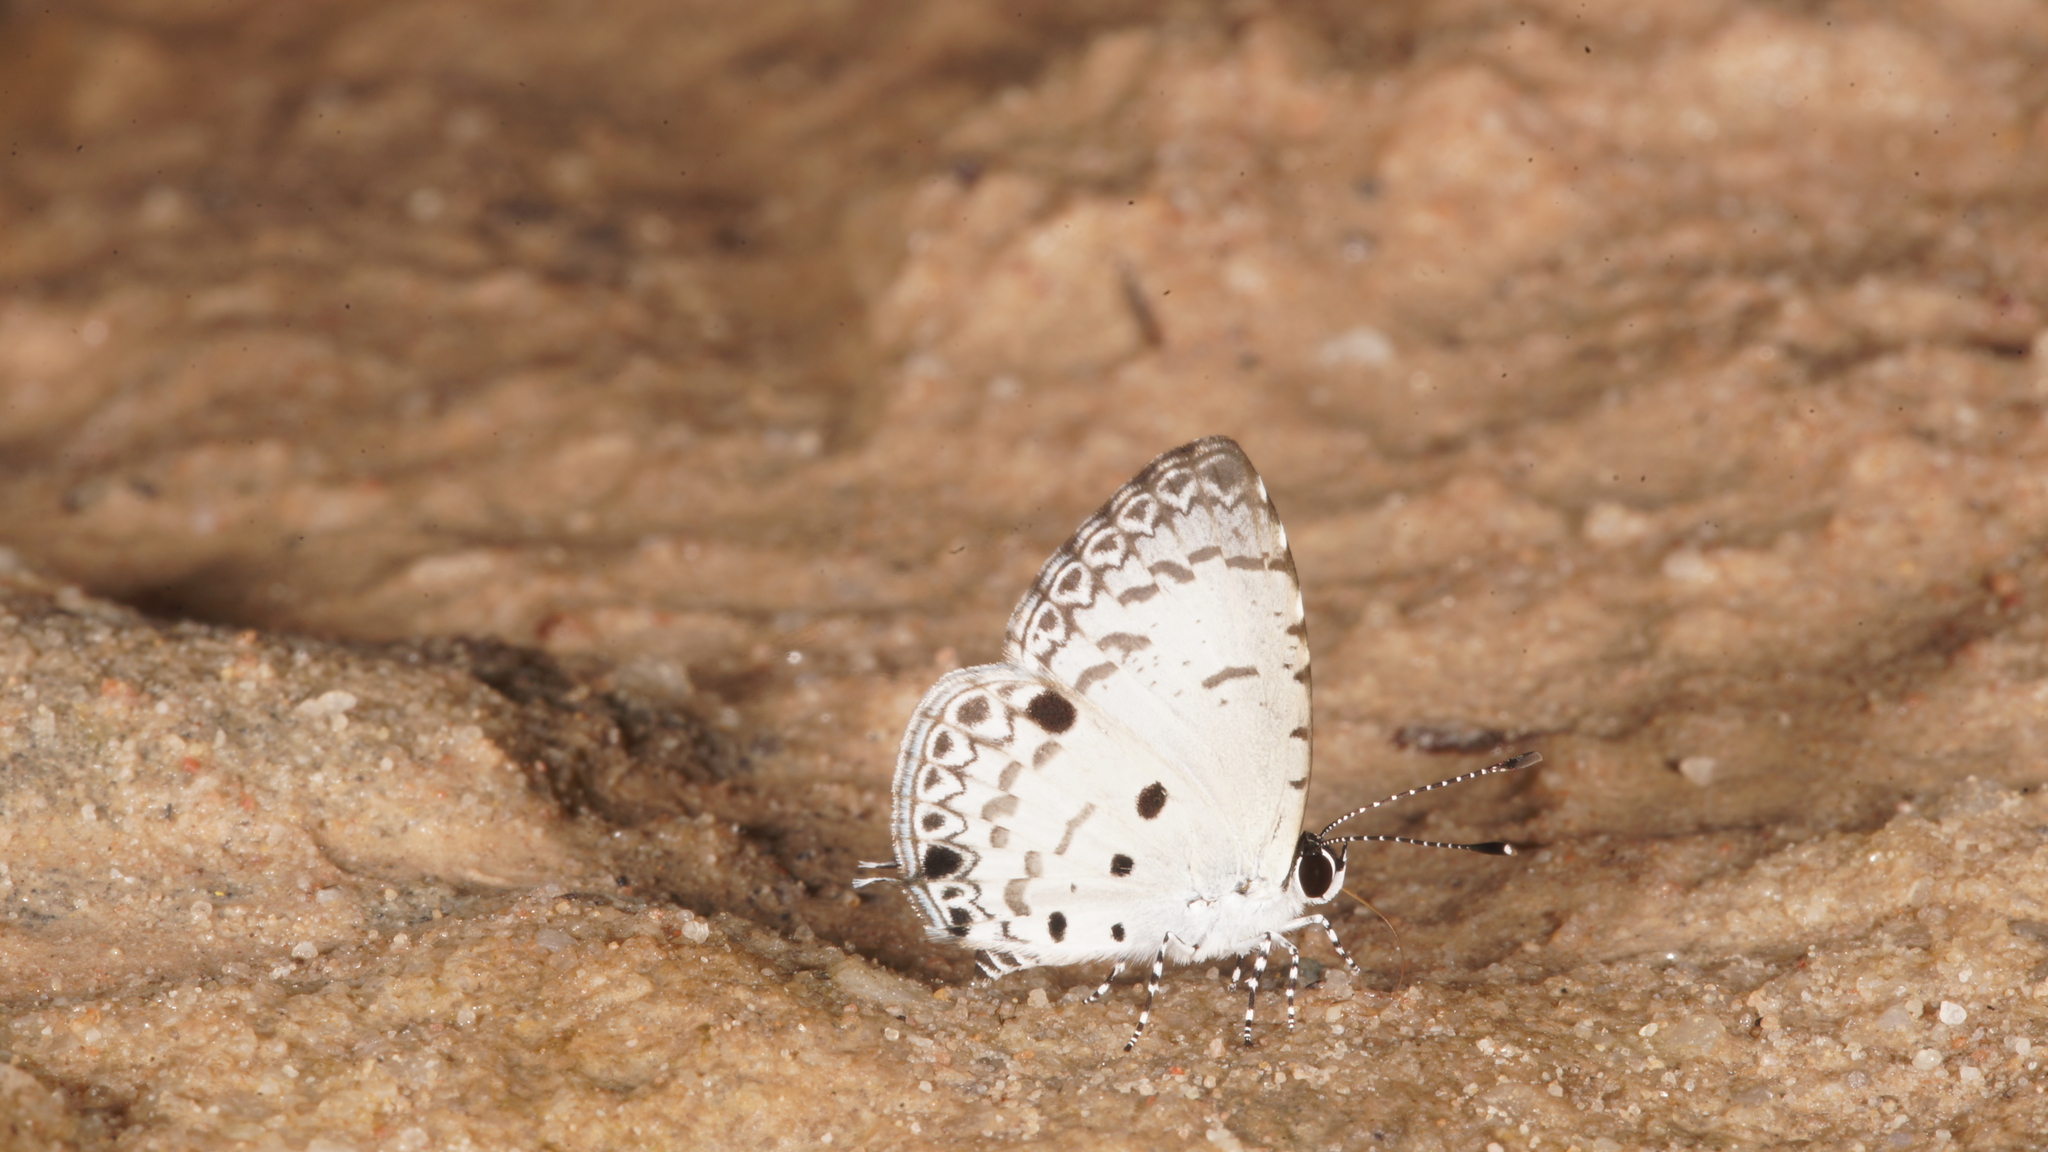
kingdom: Animalia
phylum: Arthropoda
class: Insecta
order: Lepidoptera
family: Lycaenidae
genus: Megisba
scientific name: Megisba malaya
